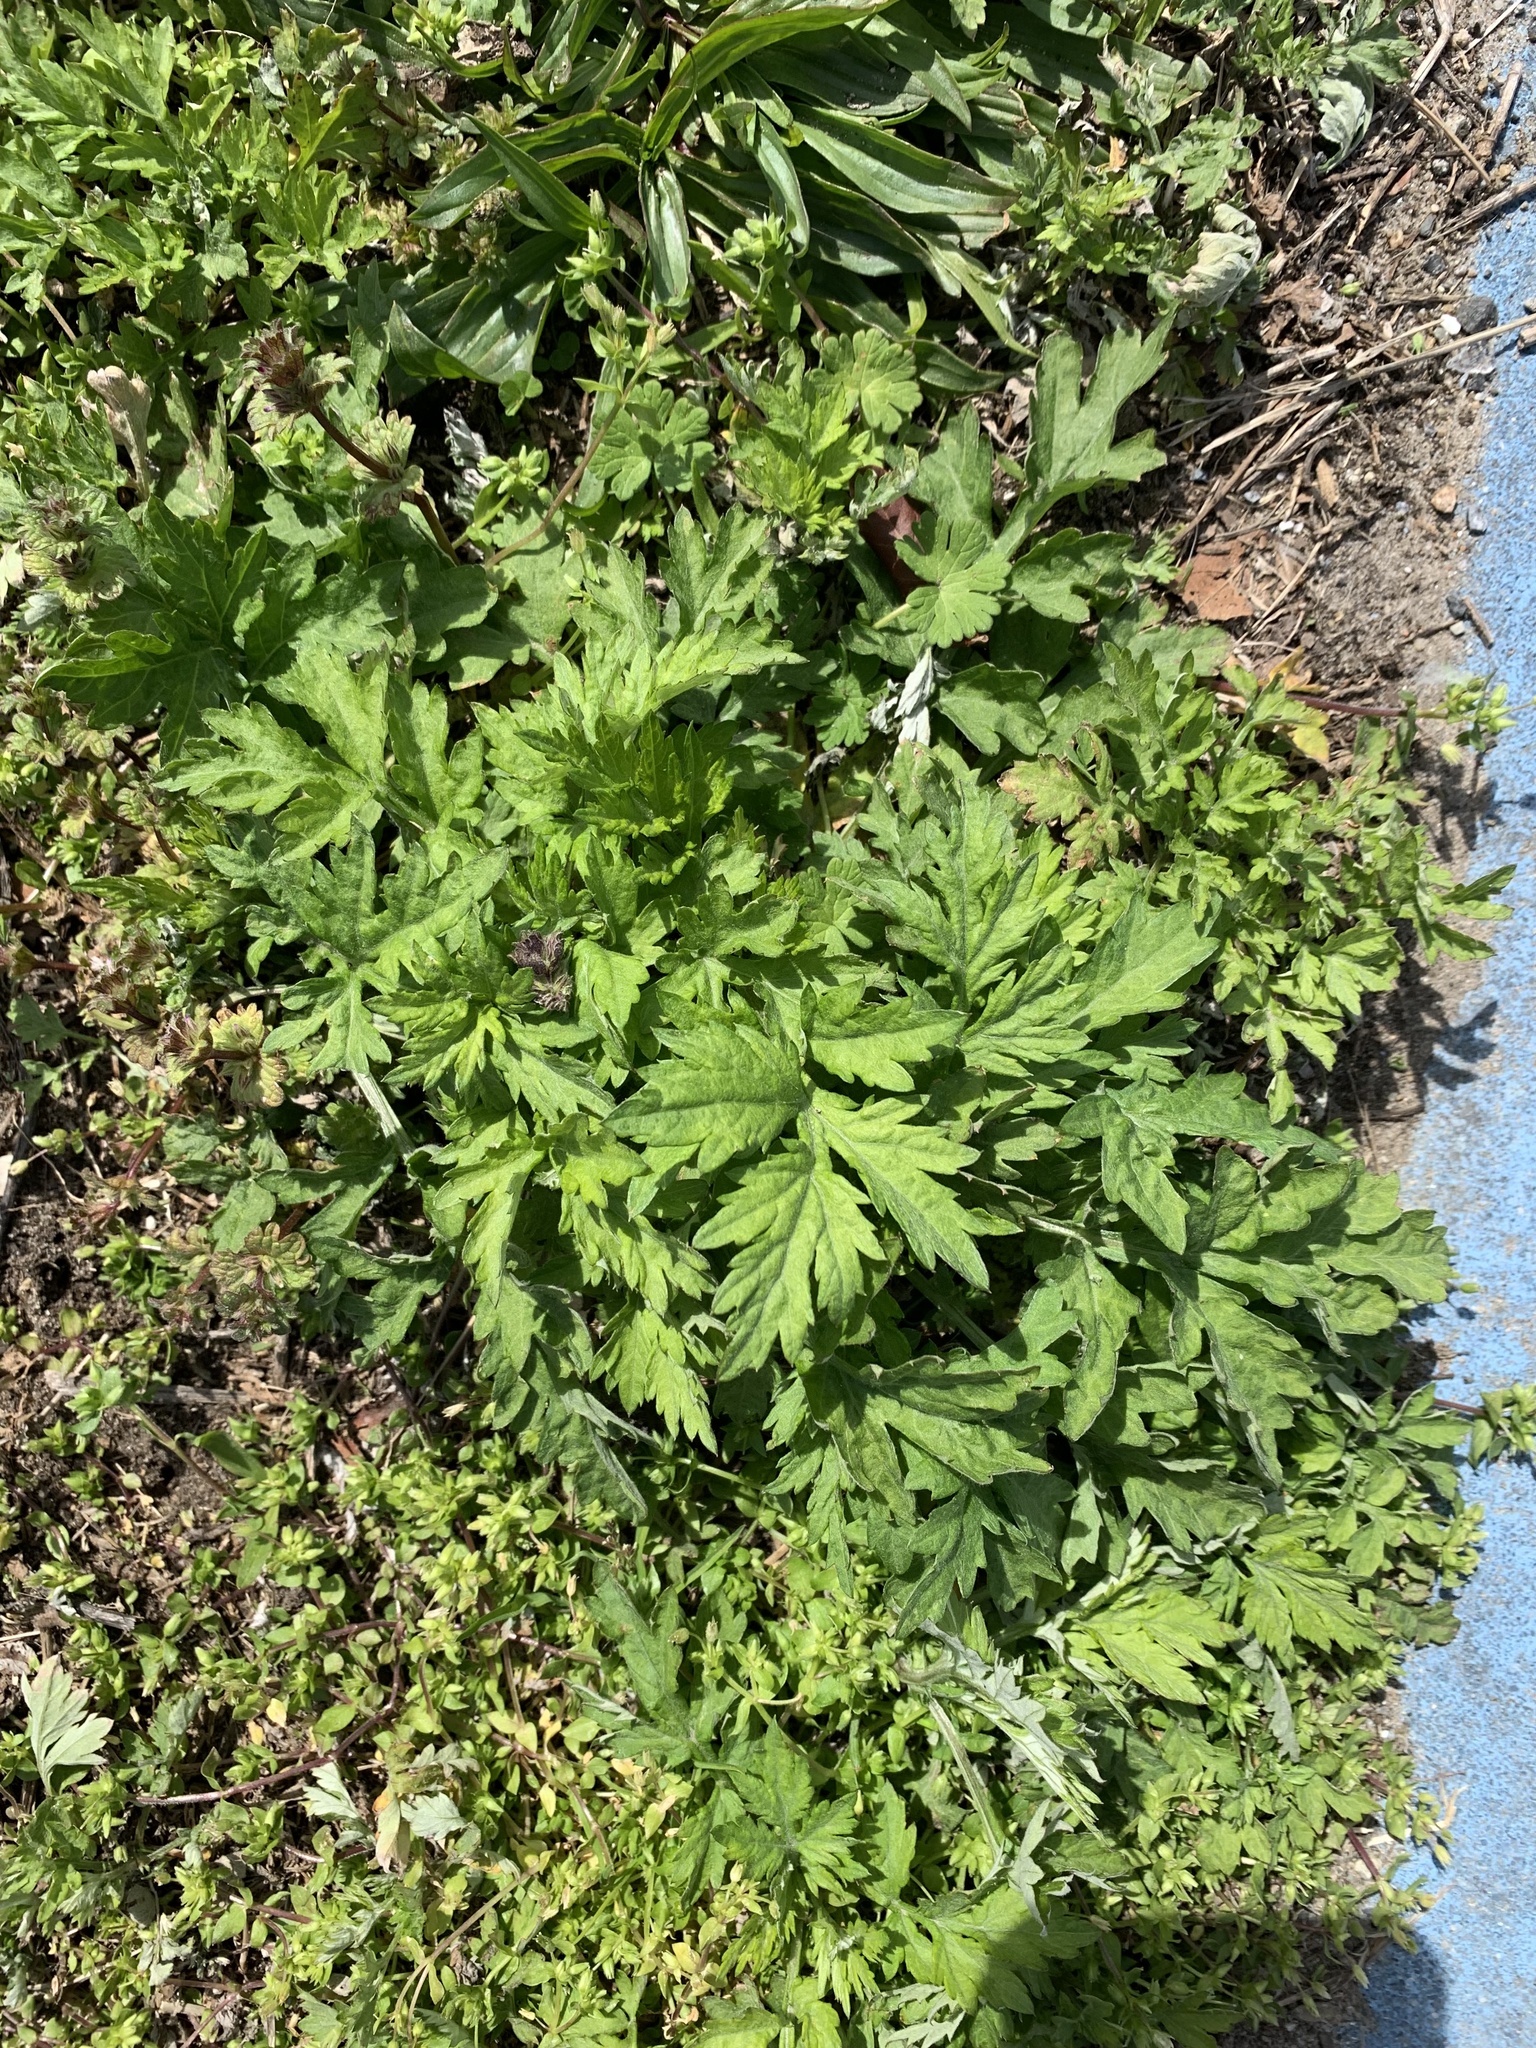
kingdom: Plantae
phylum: Tracheophyta
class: Magnoliopsida
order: Asterales
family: Asteraceae
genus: Artemisia
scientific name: Artemisia vulgaris
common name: Mugwort
